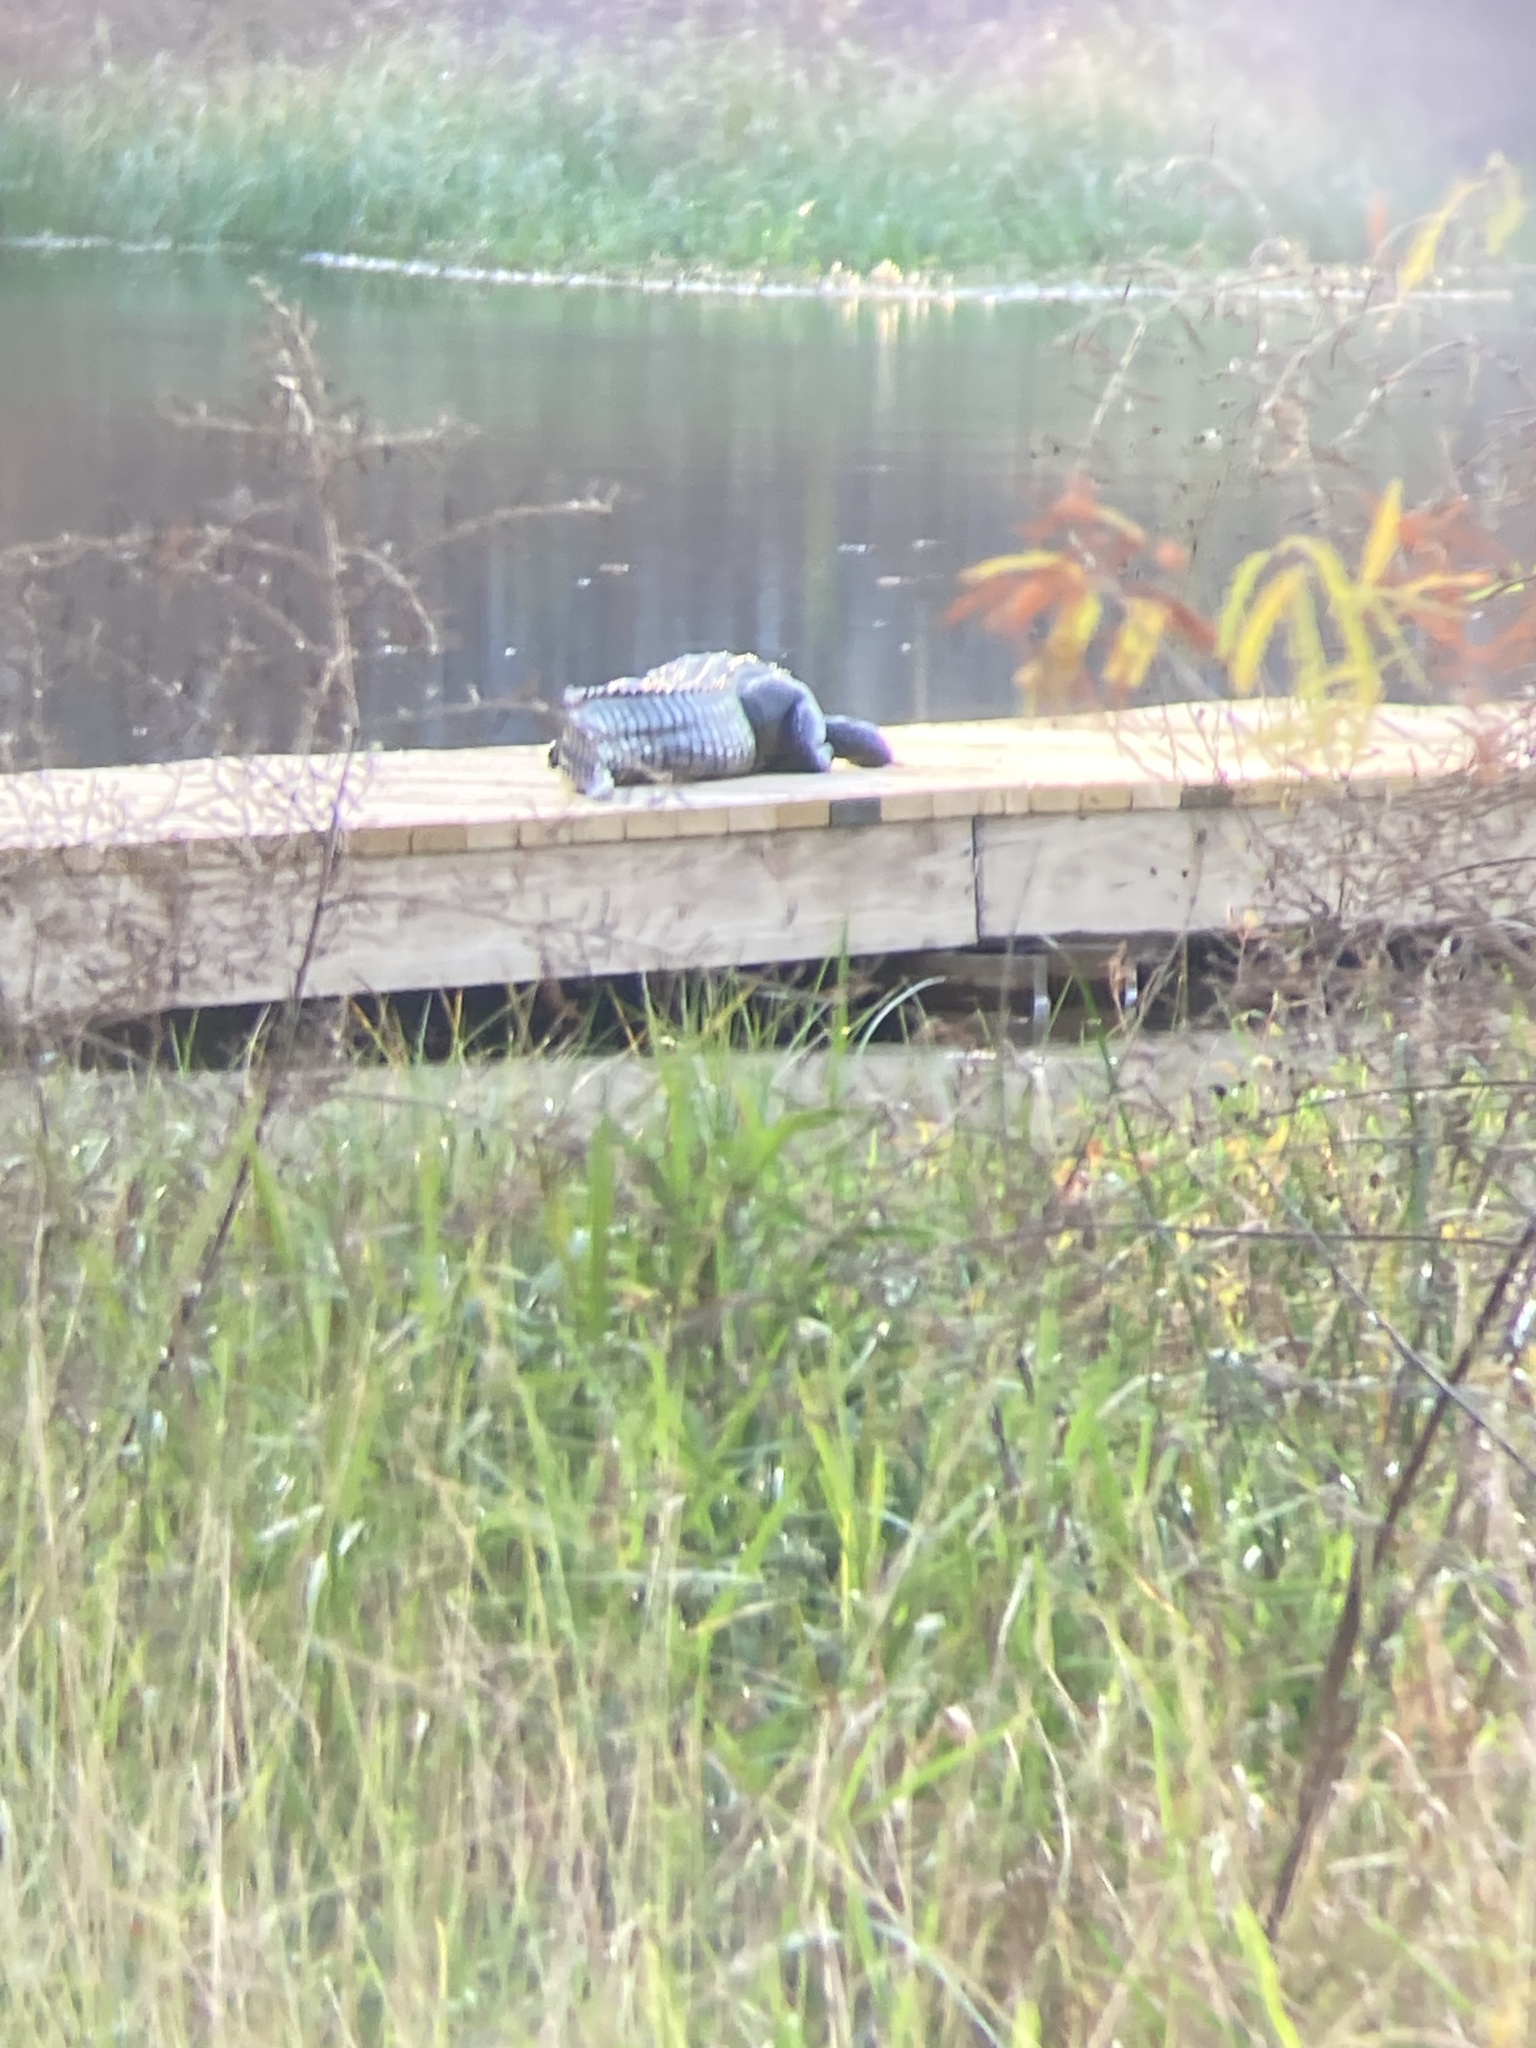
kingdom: Animalia
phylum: Chordata
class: Crocodylia
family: Alligatoridae
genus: Alligator
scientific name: Alligator mississippiensis
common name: American alligator
